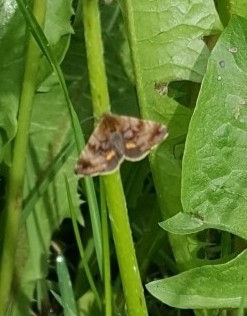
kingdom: Animalia
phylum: Arthropoda
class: Insecta
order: Lepidoptera
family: Noctuidae
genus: Panemeria
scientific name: Panemeria tenebrata
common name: Small yellow underwing
